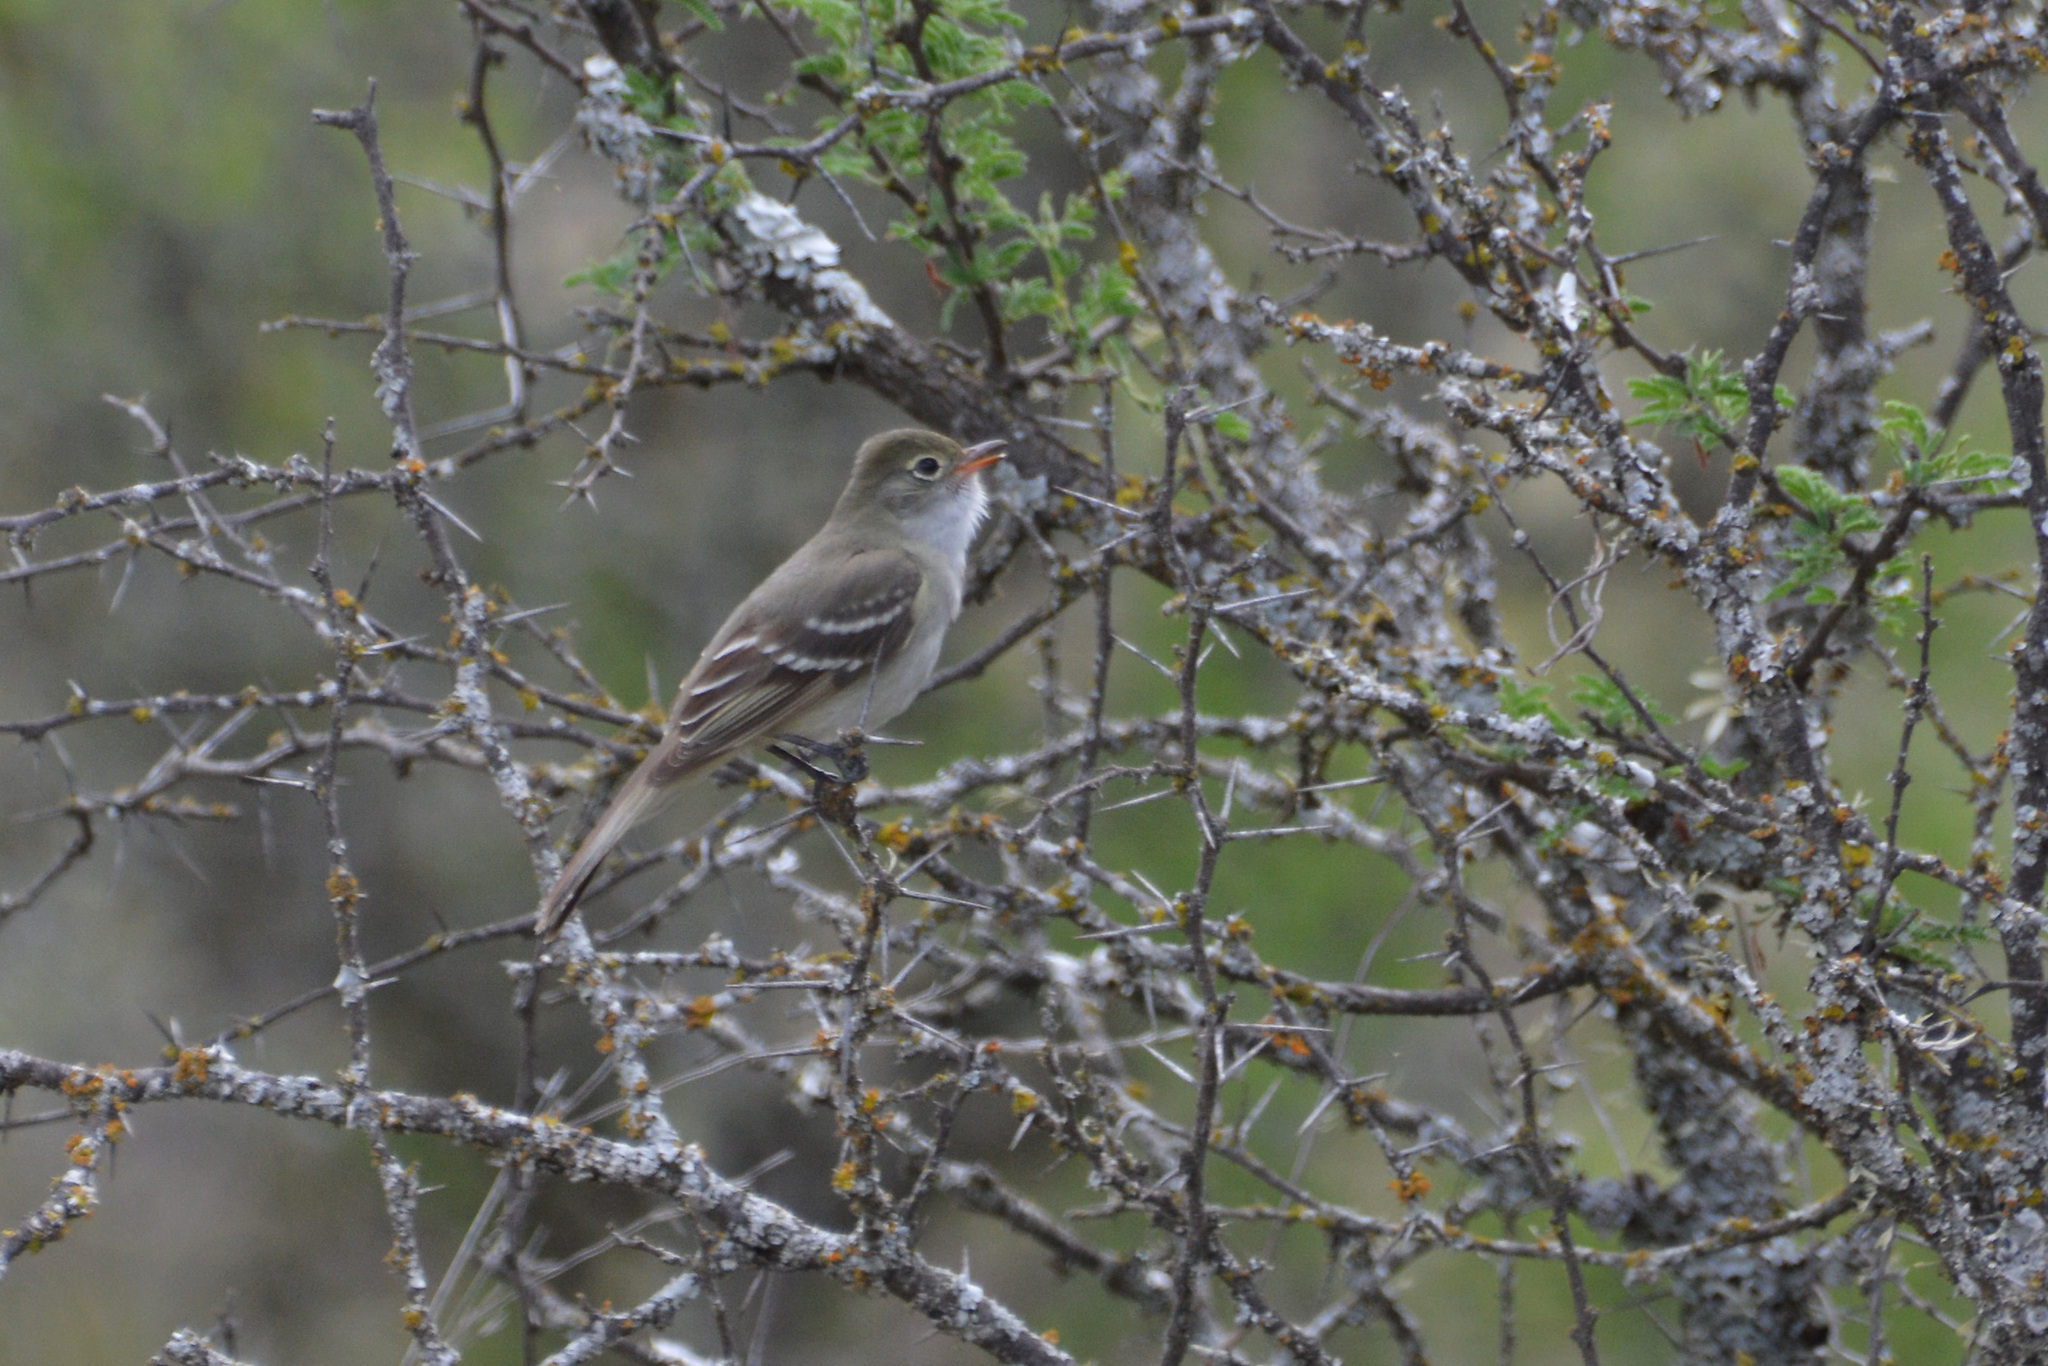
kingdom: Animalia
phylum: Chordata
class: Aves
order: Passeriformes
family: Tyrannidae
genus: Elaenia
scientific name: Elaenia parvirostris
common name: Small-billed elaenia
